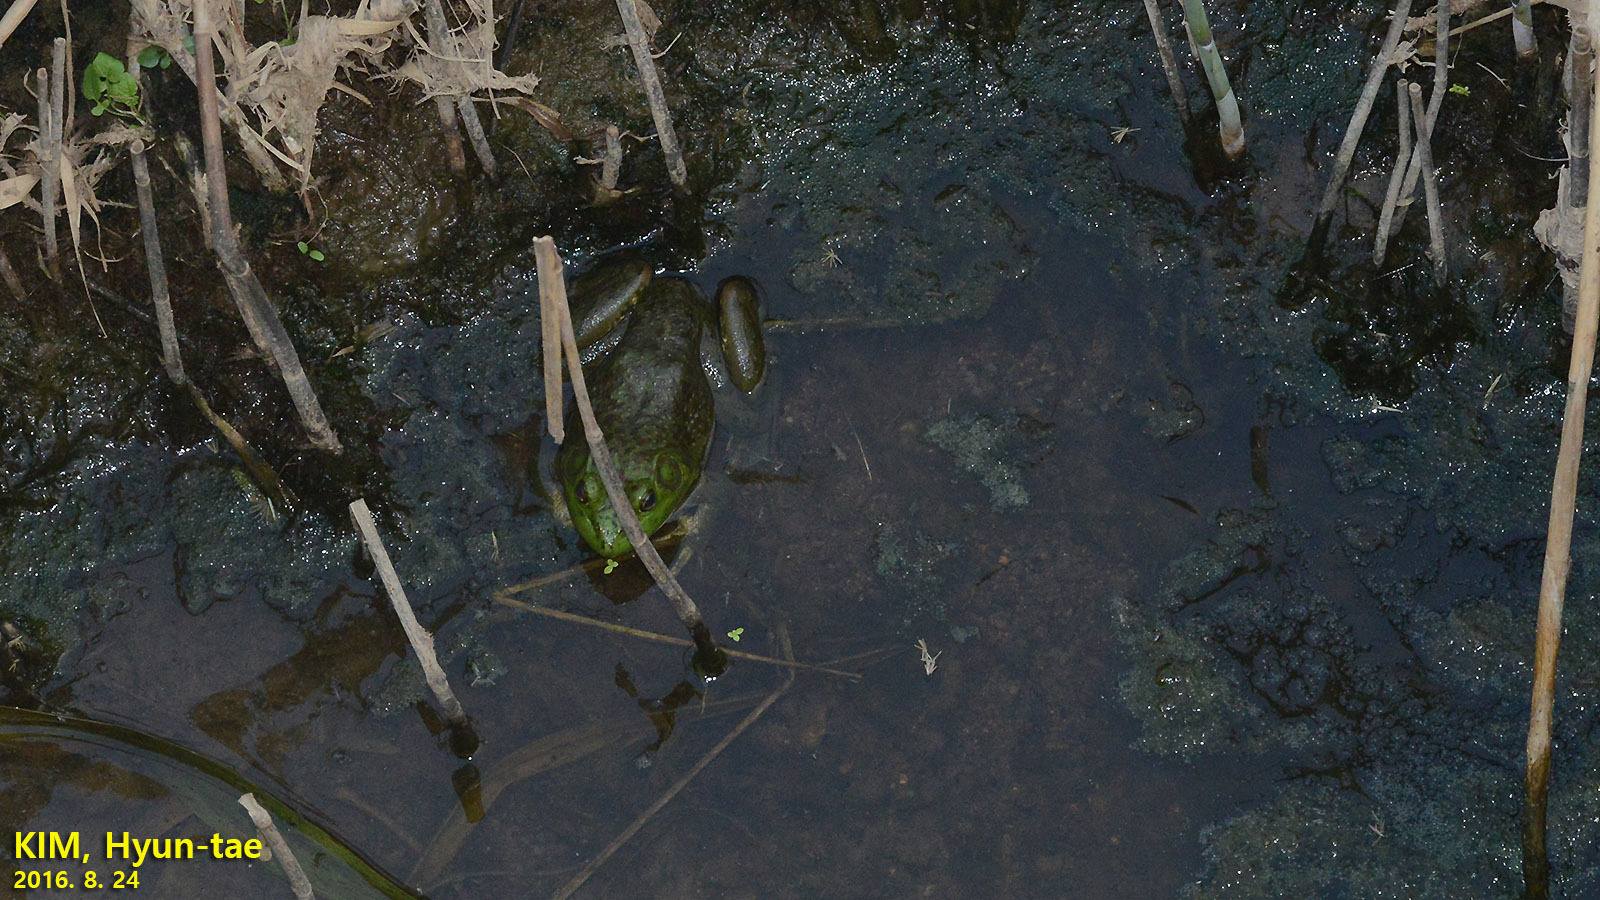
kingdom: Animalia
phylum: Chordata
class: Amphibia
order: Anura
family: Ranidae
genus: Lithobates
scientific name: Lithobates catesbeianus
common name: American bullfrog
